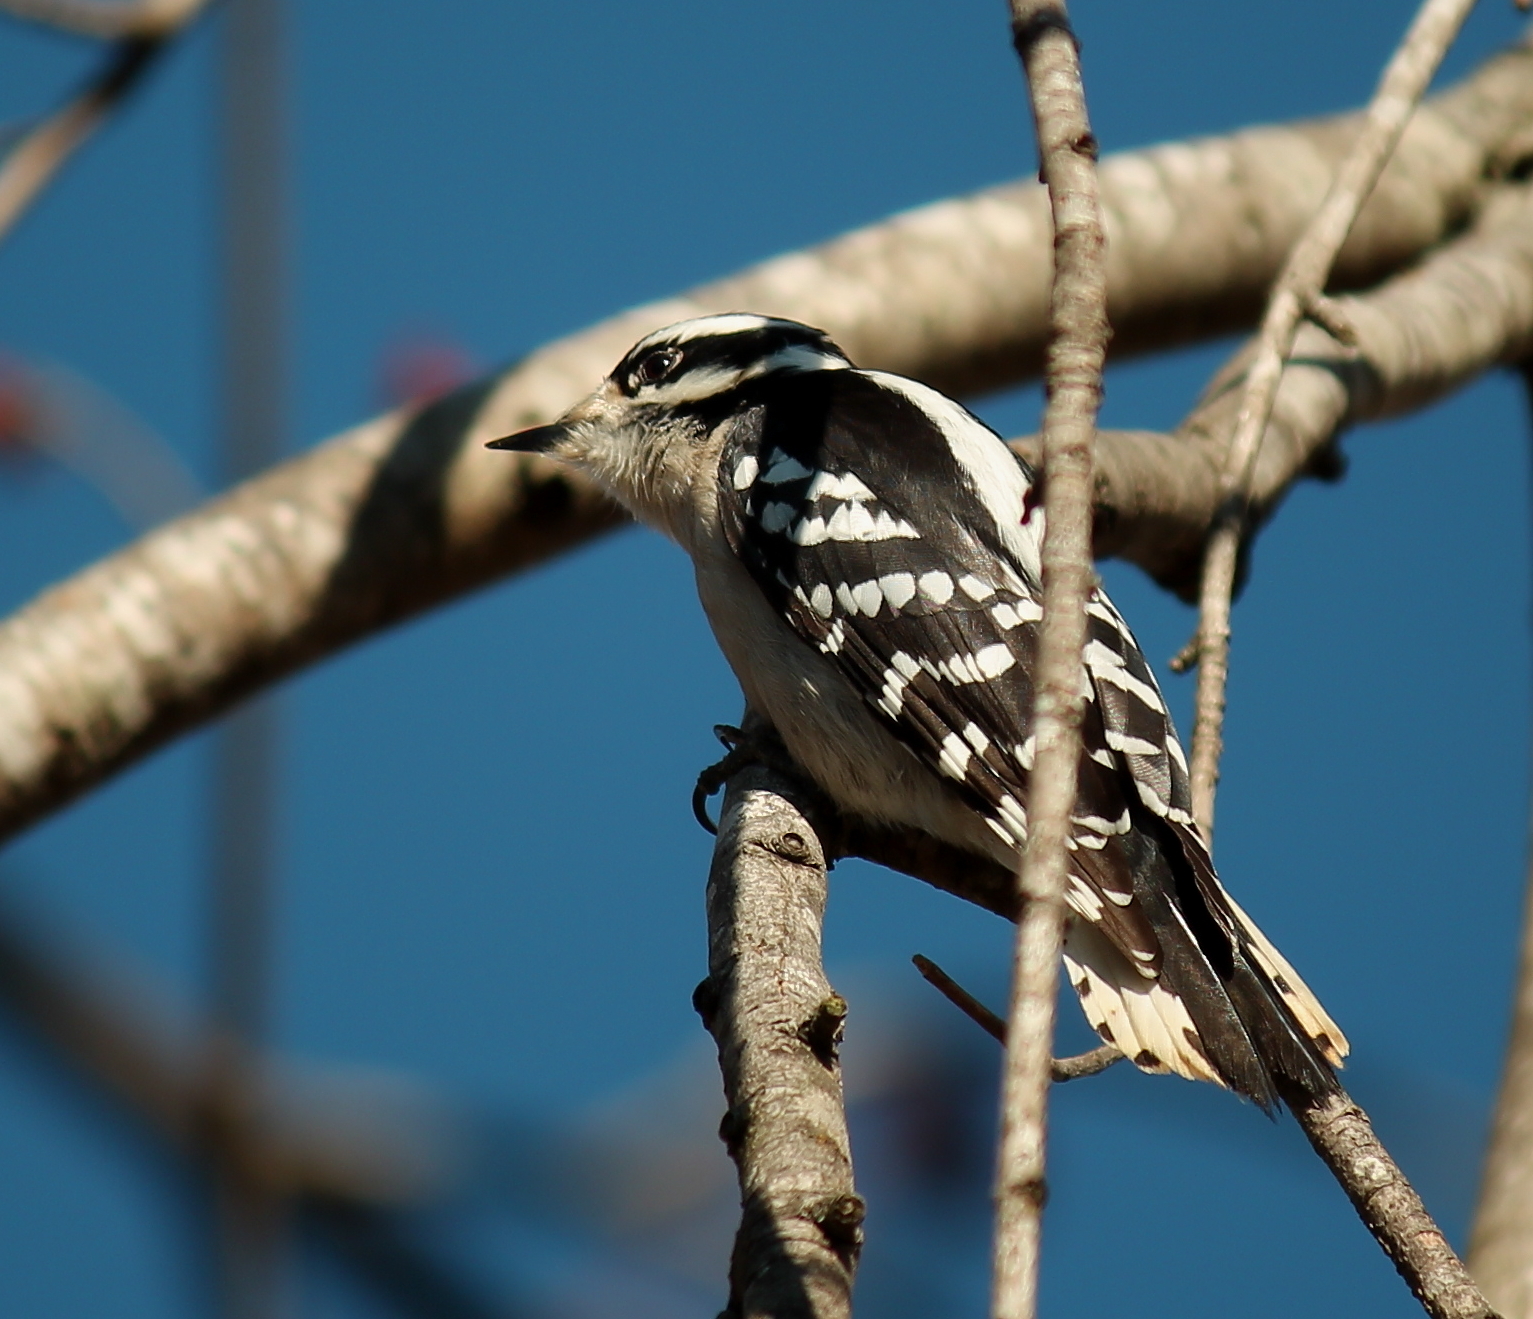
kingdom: Animalia
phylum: Chordata
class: Aves
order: Piciformes
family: Picidae
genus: Dryobates
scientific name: Dryobates pubescens
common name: Downy woodpecker
